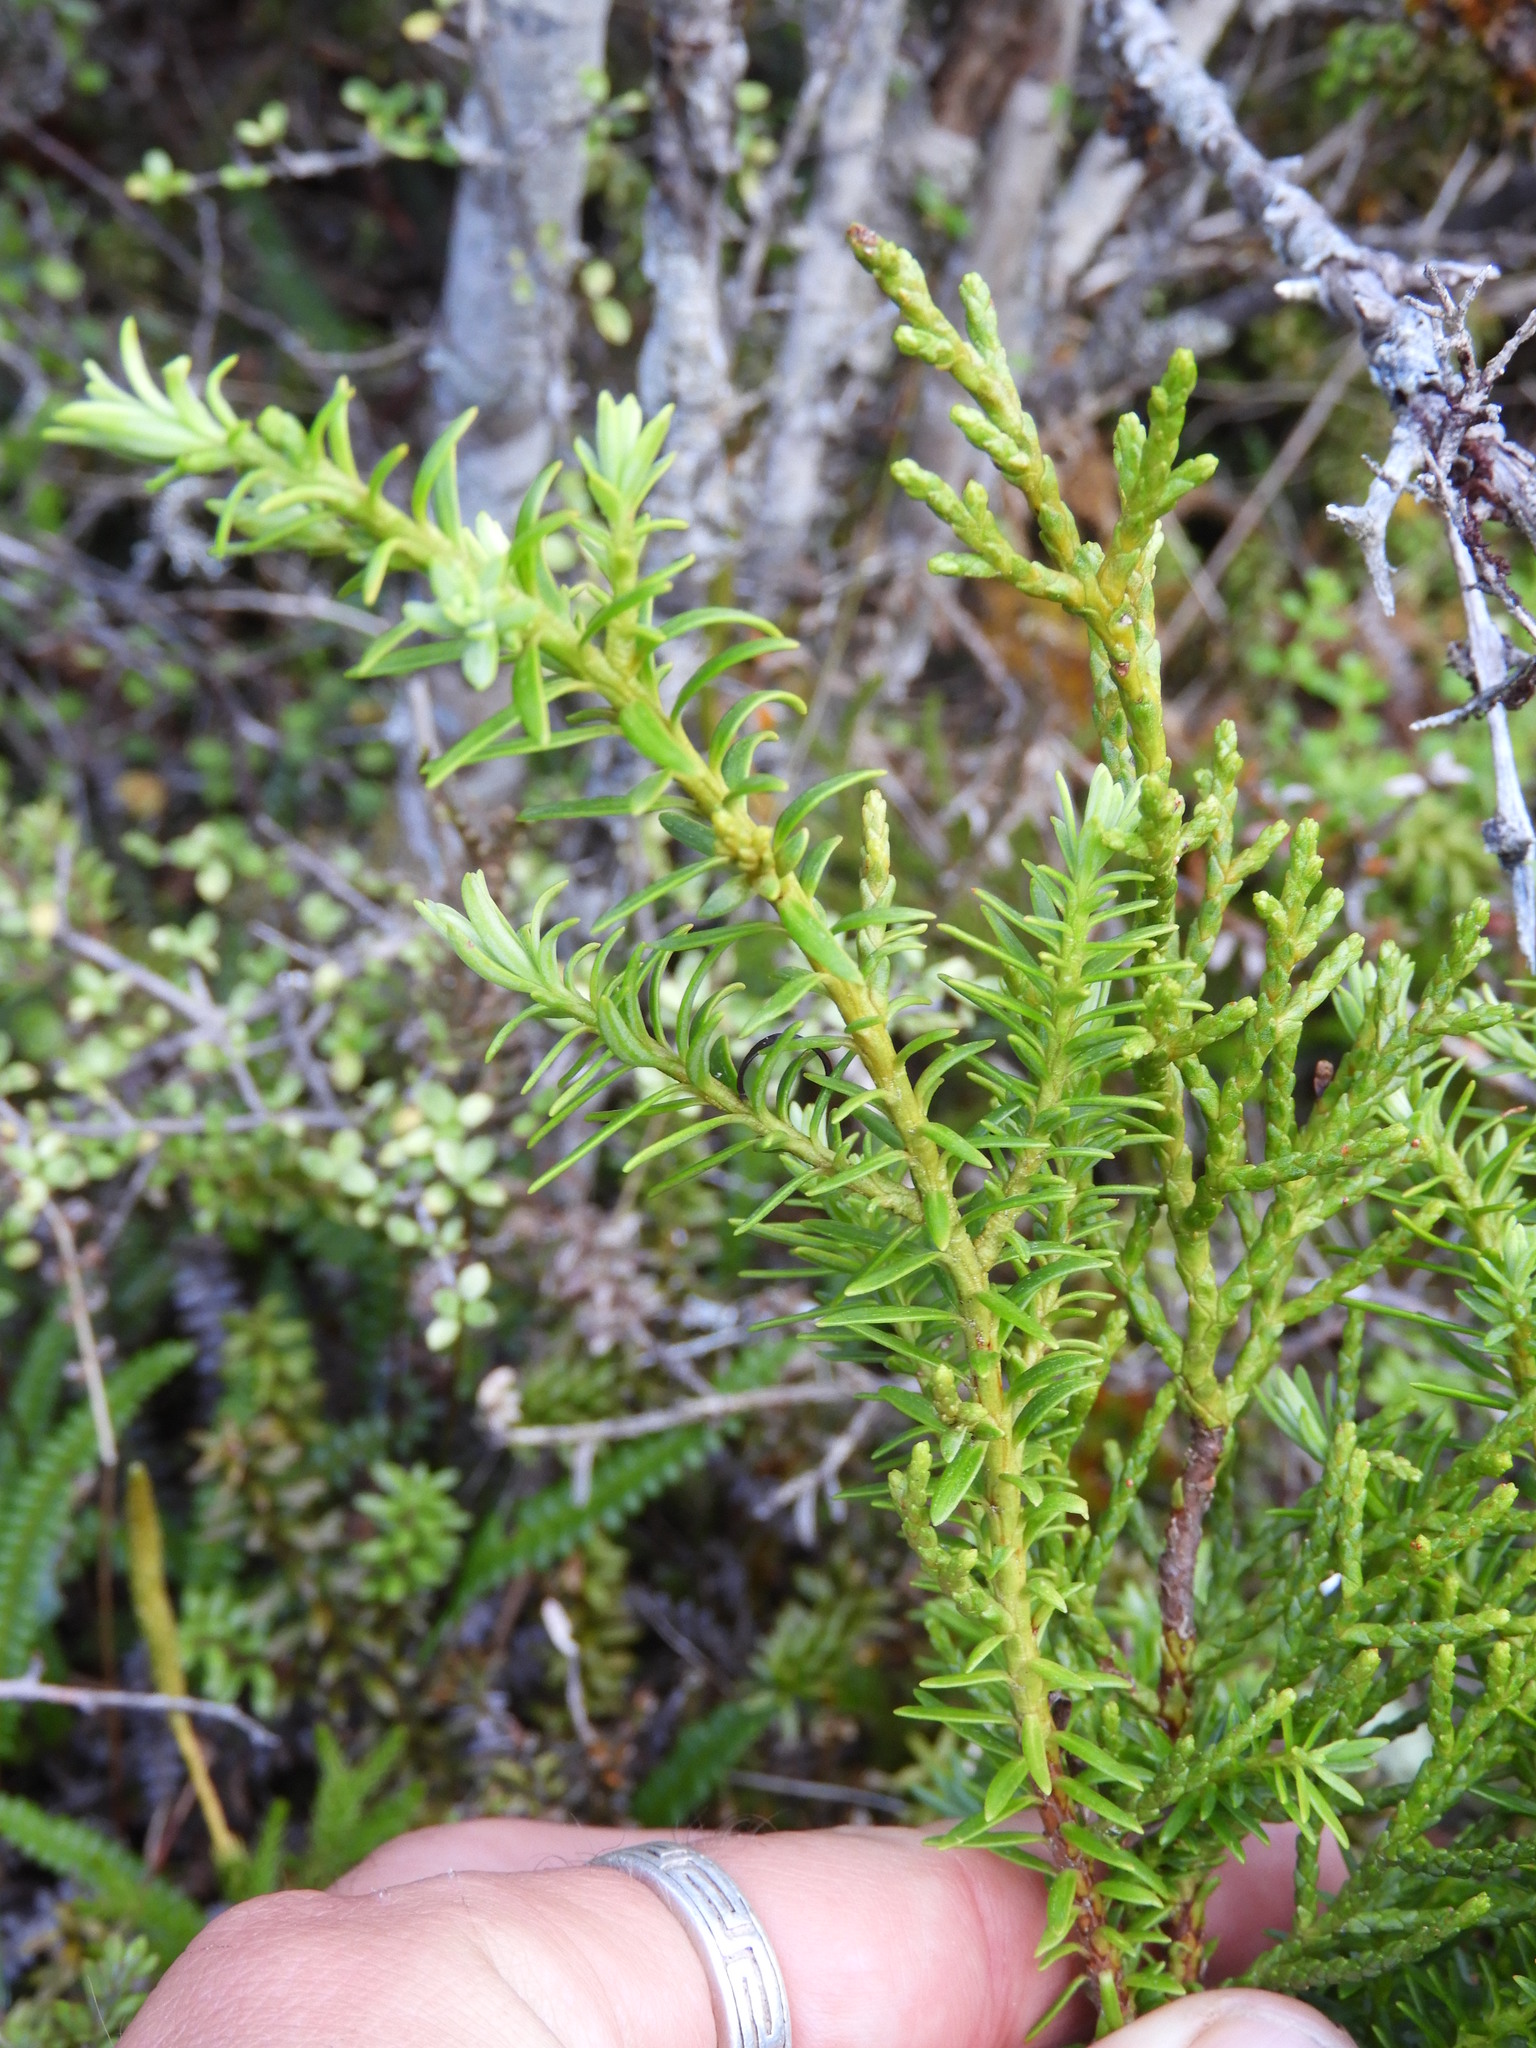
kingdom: Plantae
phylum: Tracheophyta
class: Pinopsida
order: Pinales
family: Podocarpaceae
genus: Halocarpus
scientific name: Halocarpus biformis
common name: Alpine tarwood
